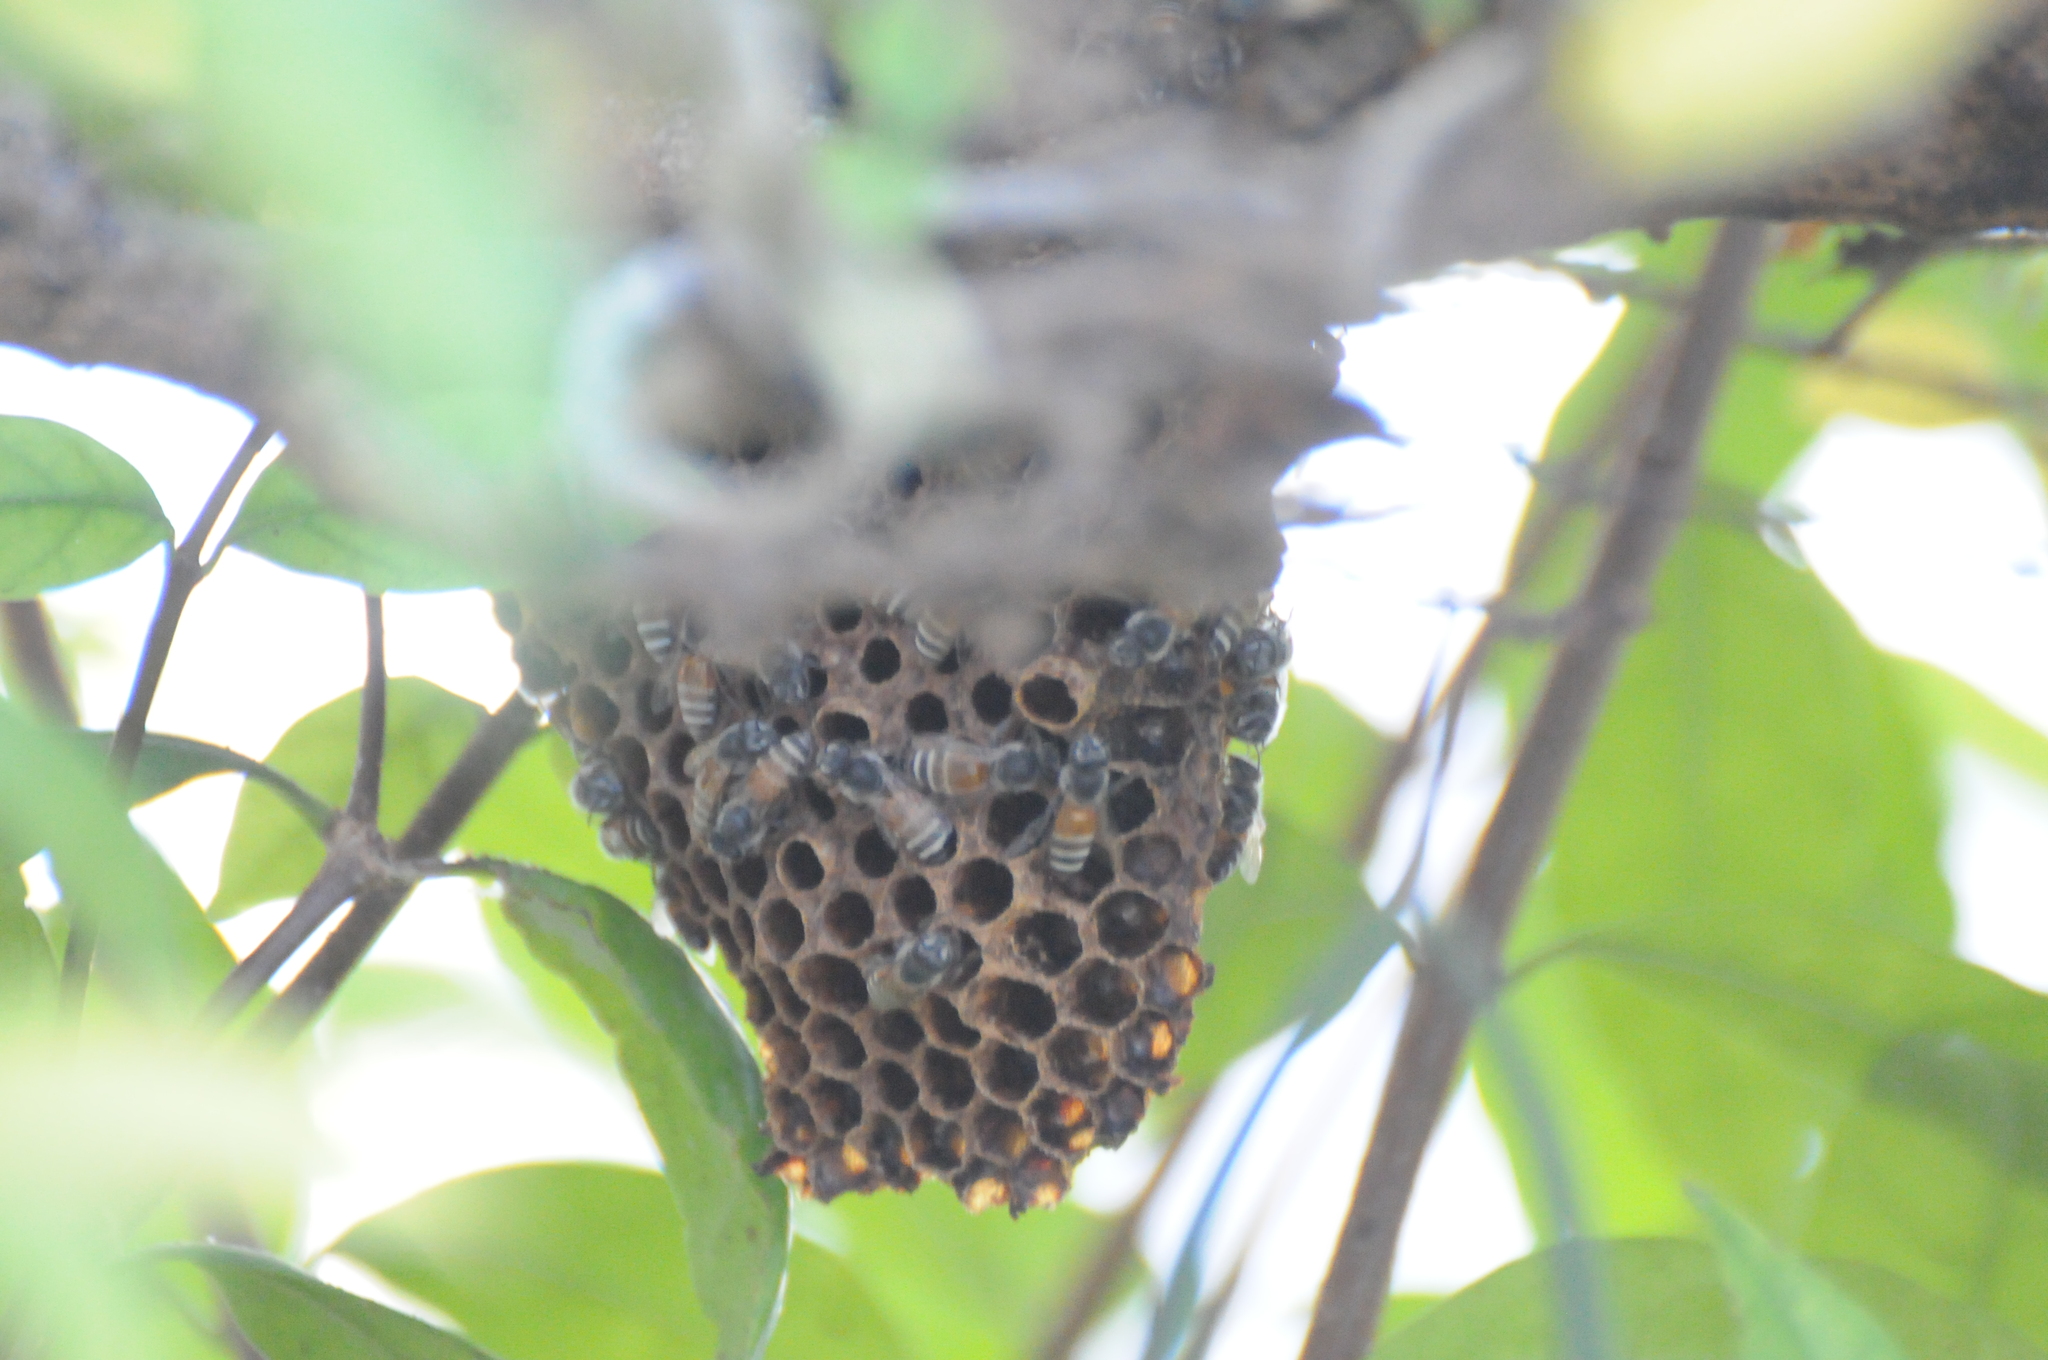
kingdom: Animalia
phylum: Arthropoda
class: Insecta
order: Hymenoptera
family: Apidae
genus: Apis
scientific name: Apis florea
